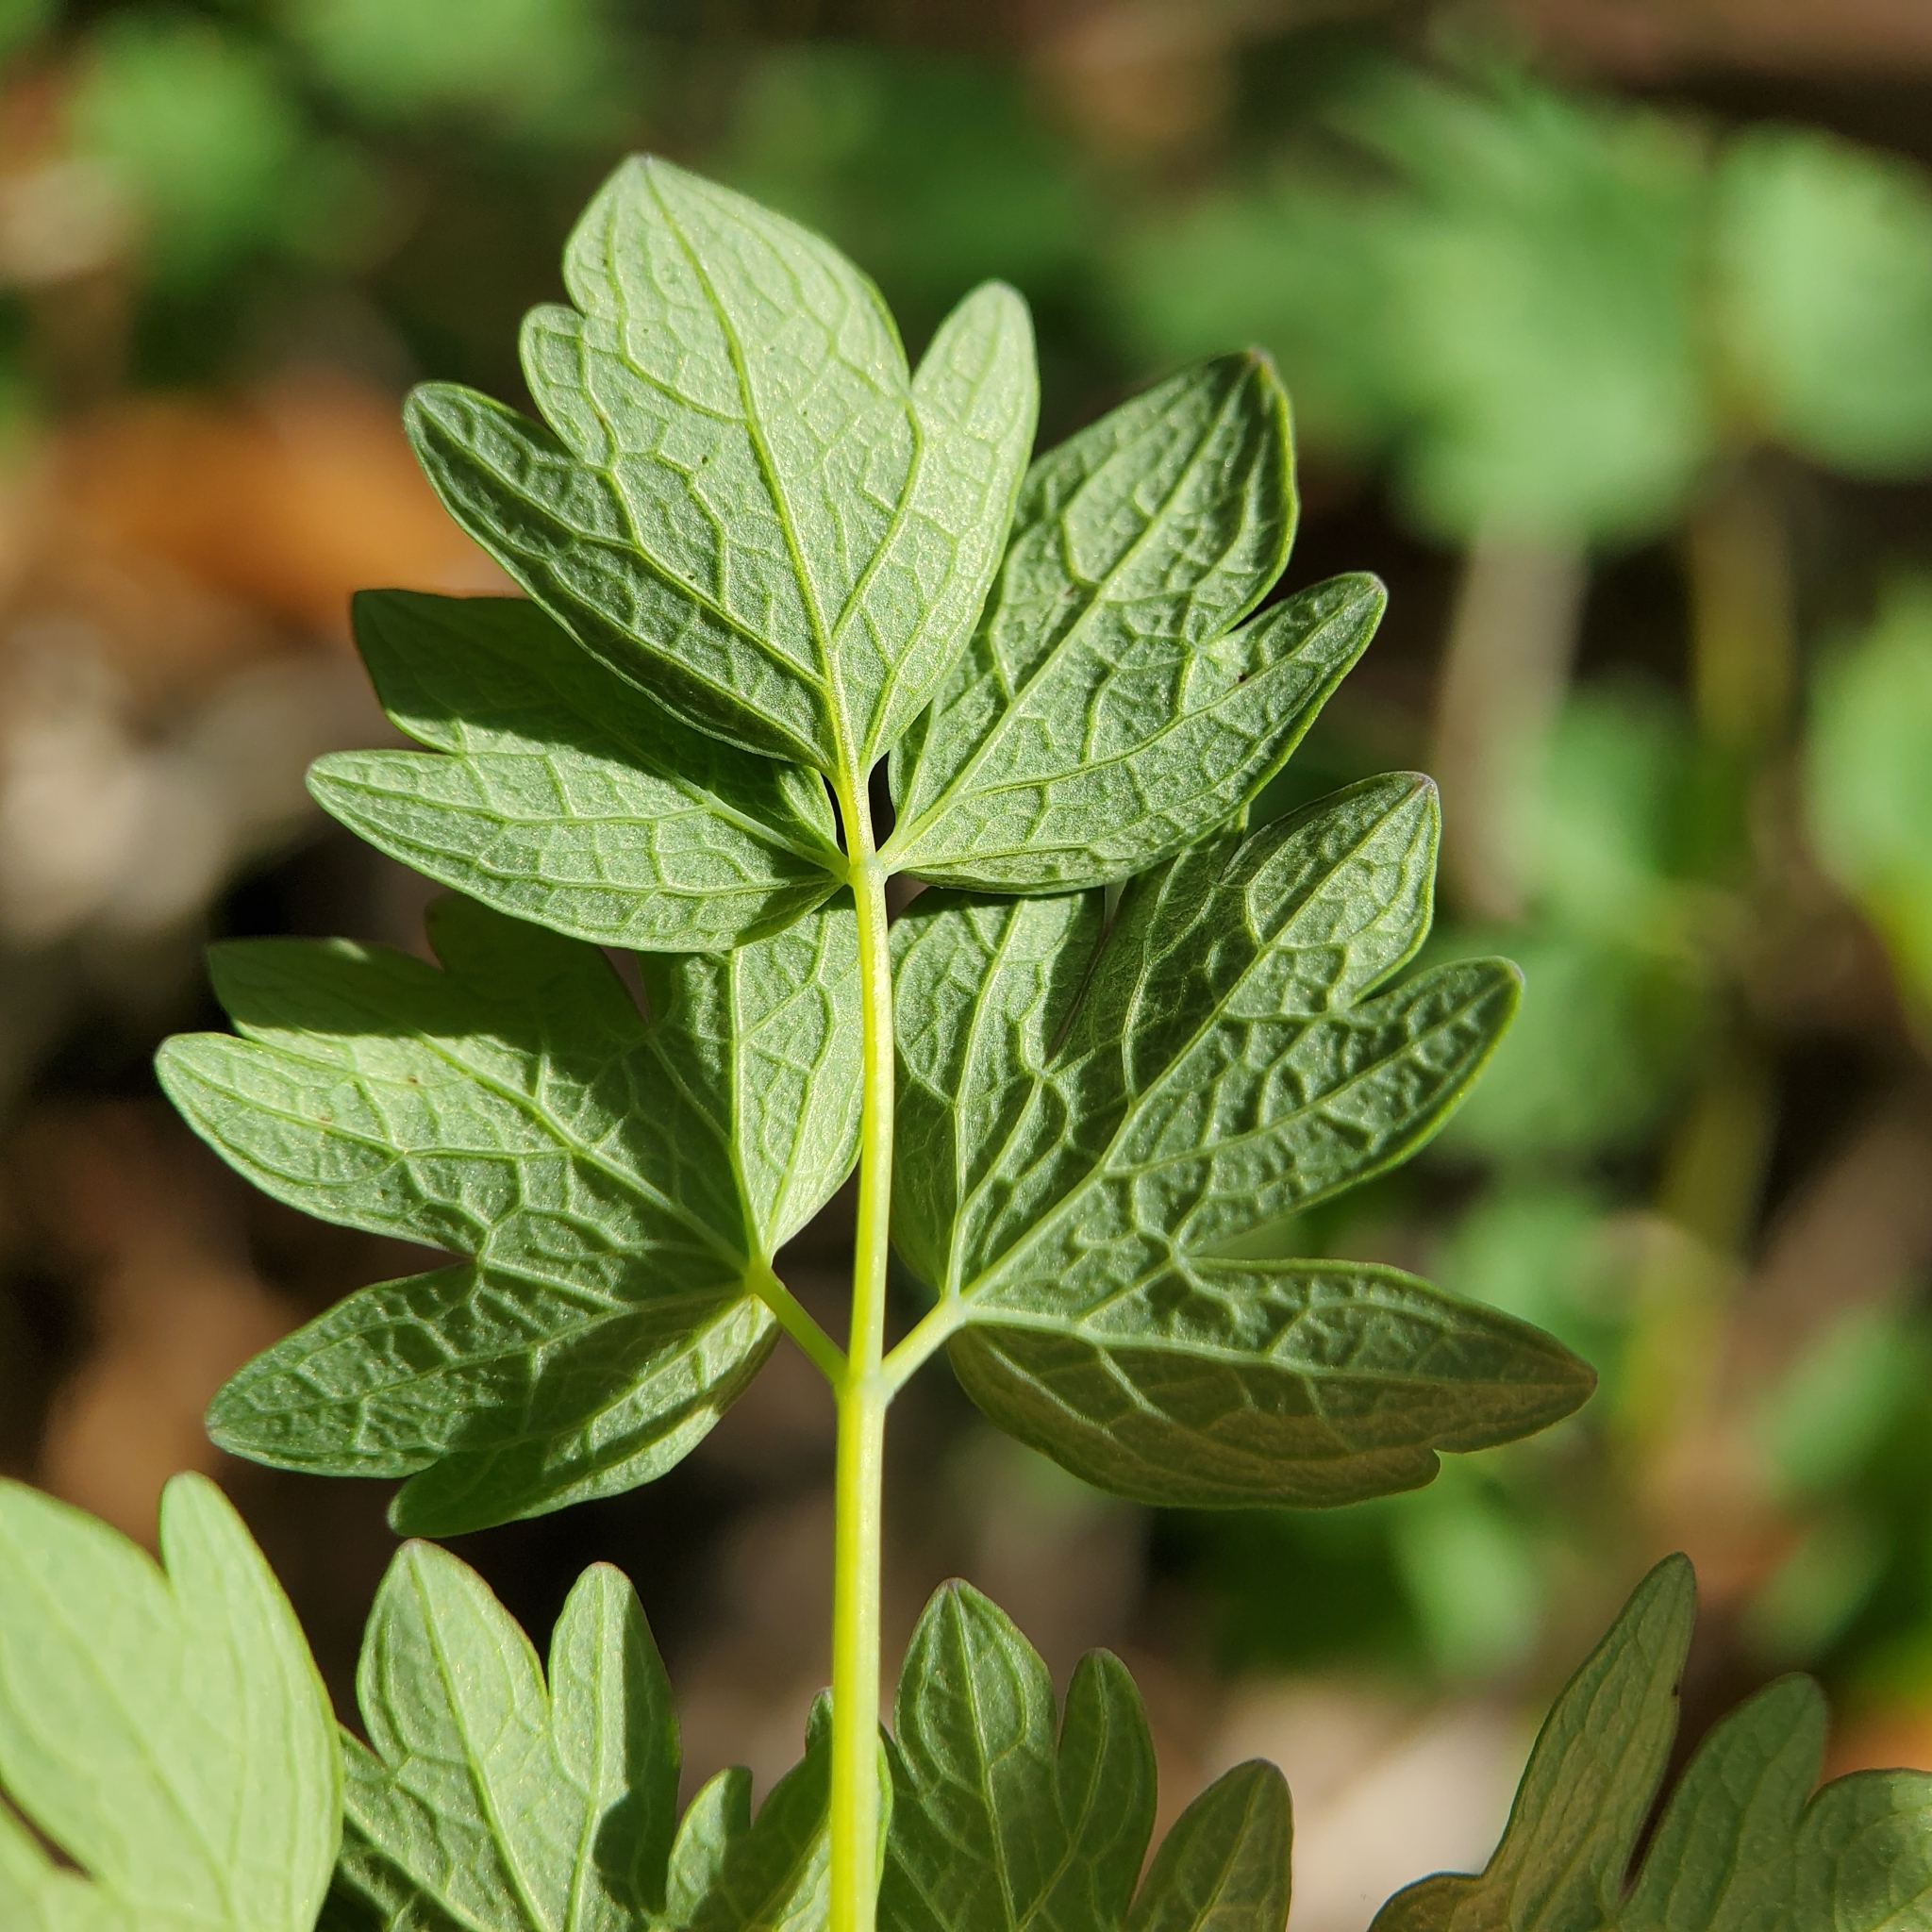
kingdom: Plantae
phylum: Tracheophyta
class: Magnoliopsida
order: Ranunculales
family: Ranunculaceae
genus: Thalictrum
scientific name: Thalictrum fendleri
